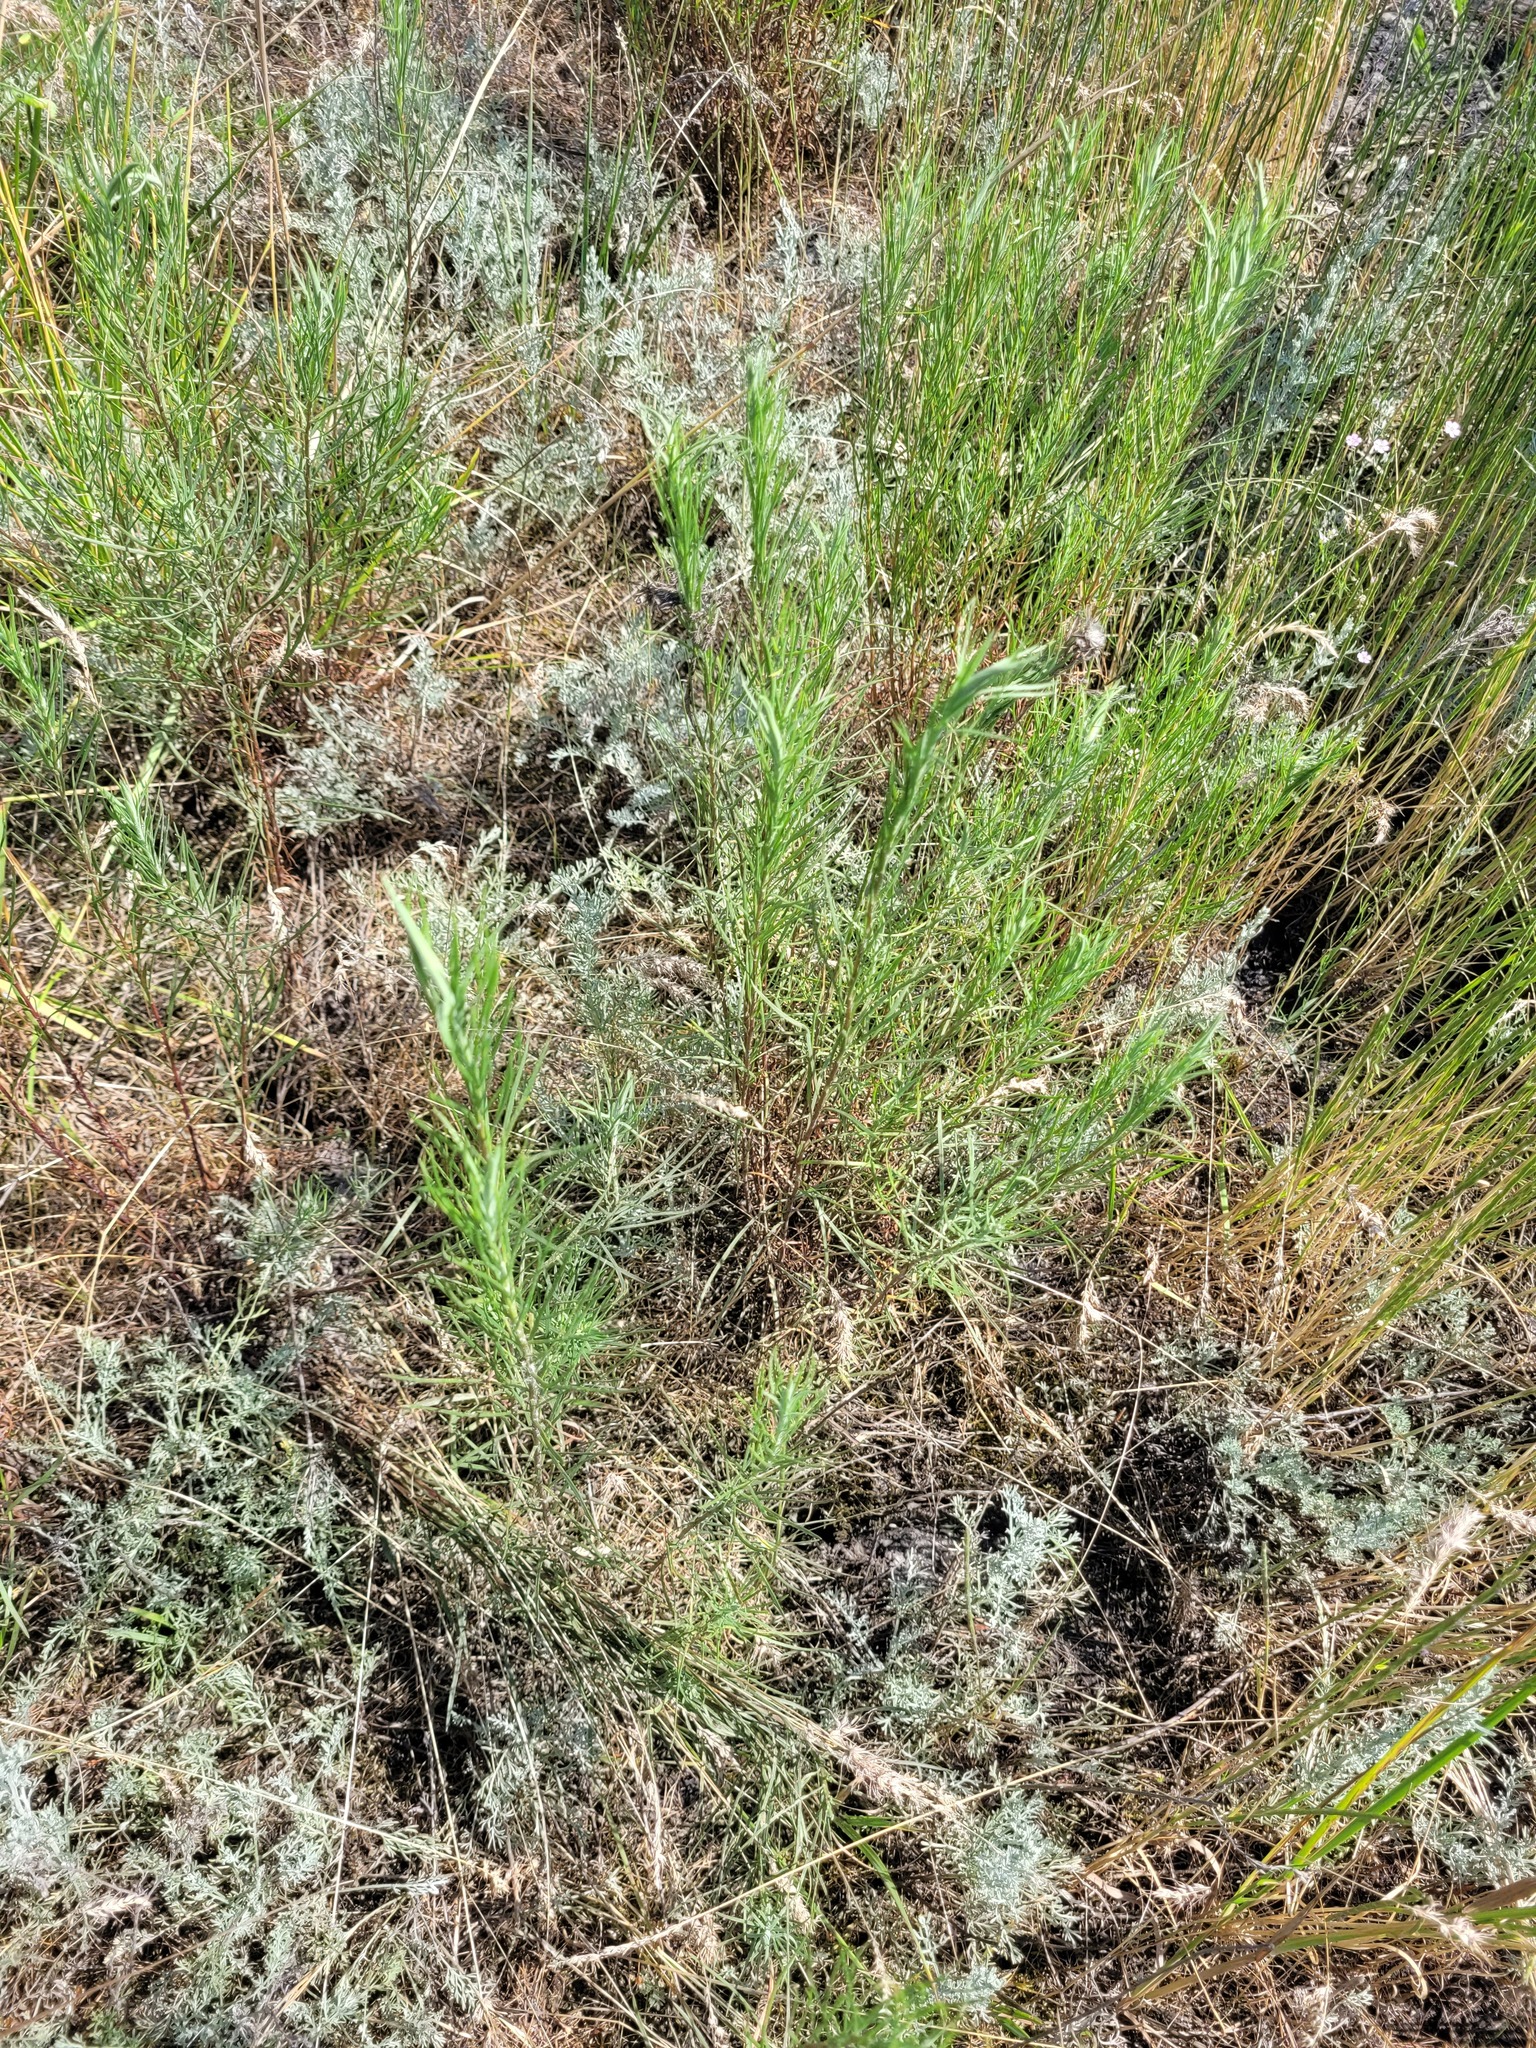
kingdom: Plantae
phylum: Tracheophyta
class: Magnoliopsida
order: Asterales
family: Asteraceae
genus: Galatella
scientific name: Galatella angustissima
